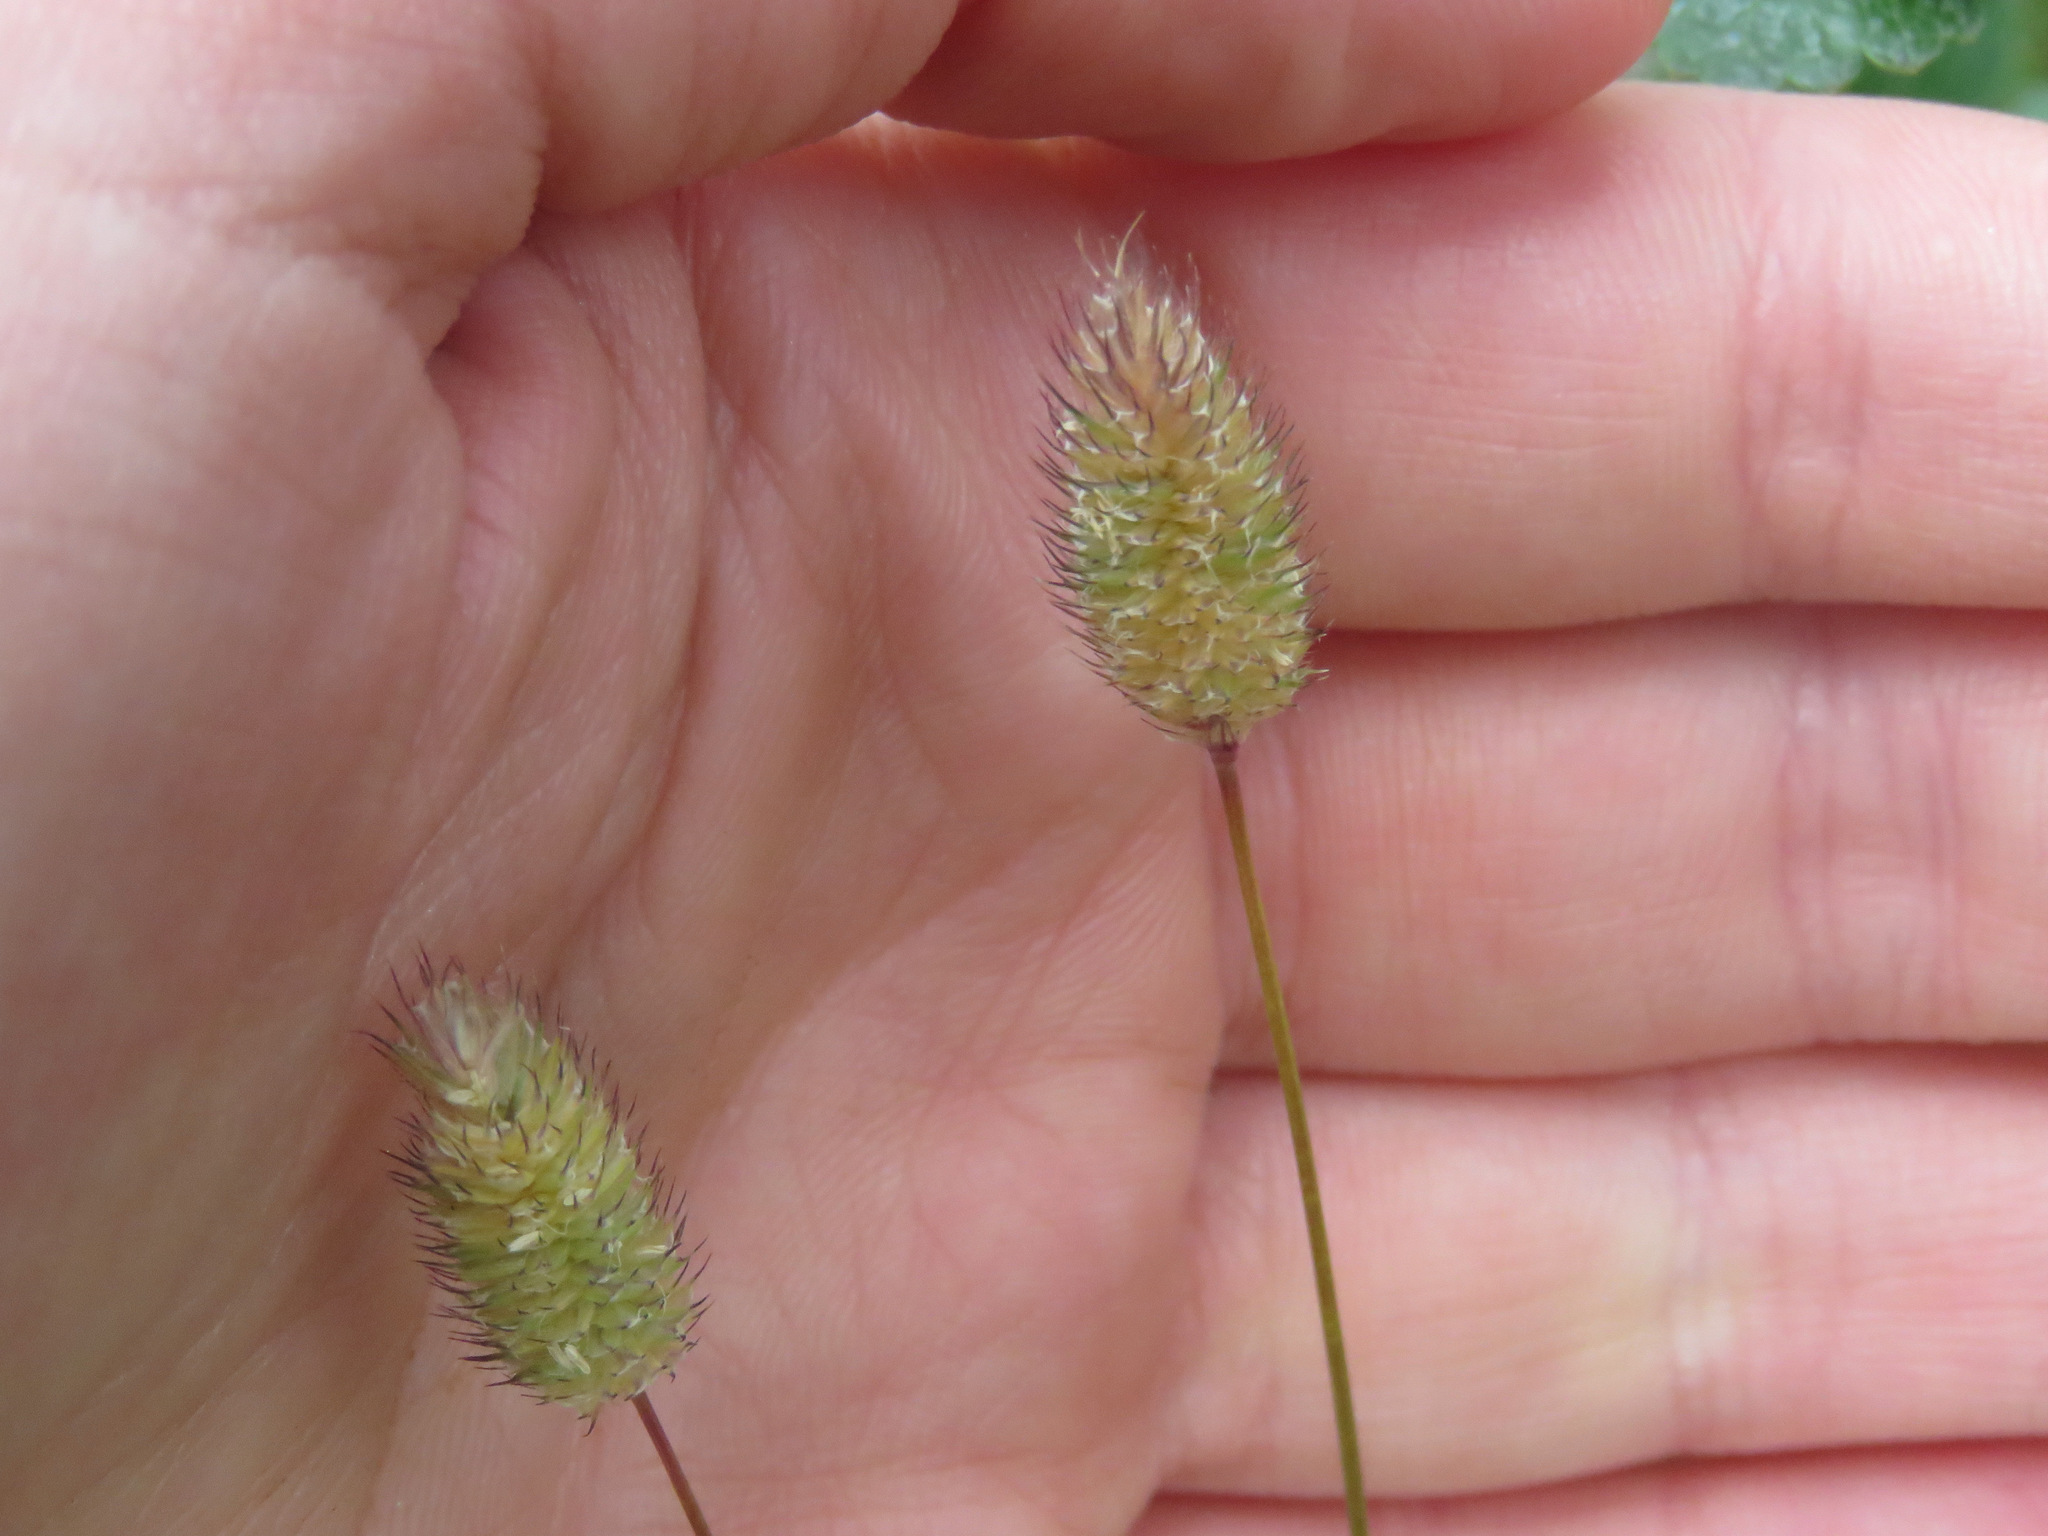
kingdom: Plantae
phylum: Tracheophyta
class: Liliopsida
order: Poales
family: Poaceae
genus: Phleum
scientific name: Phleum alpinum
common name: Alpine cat's-tail
